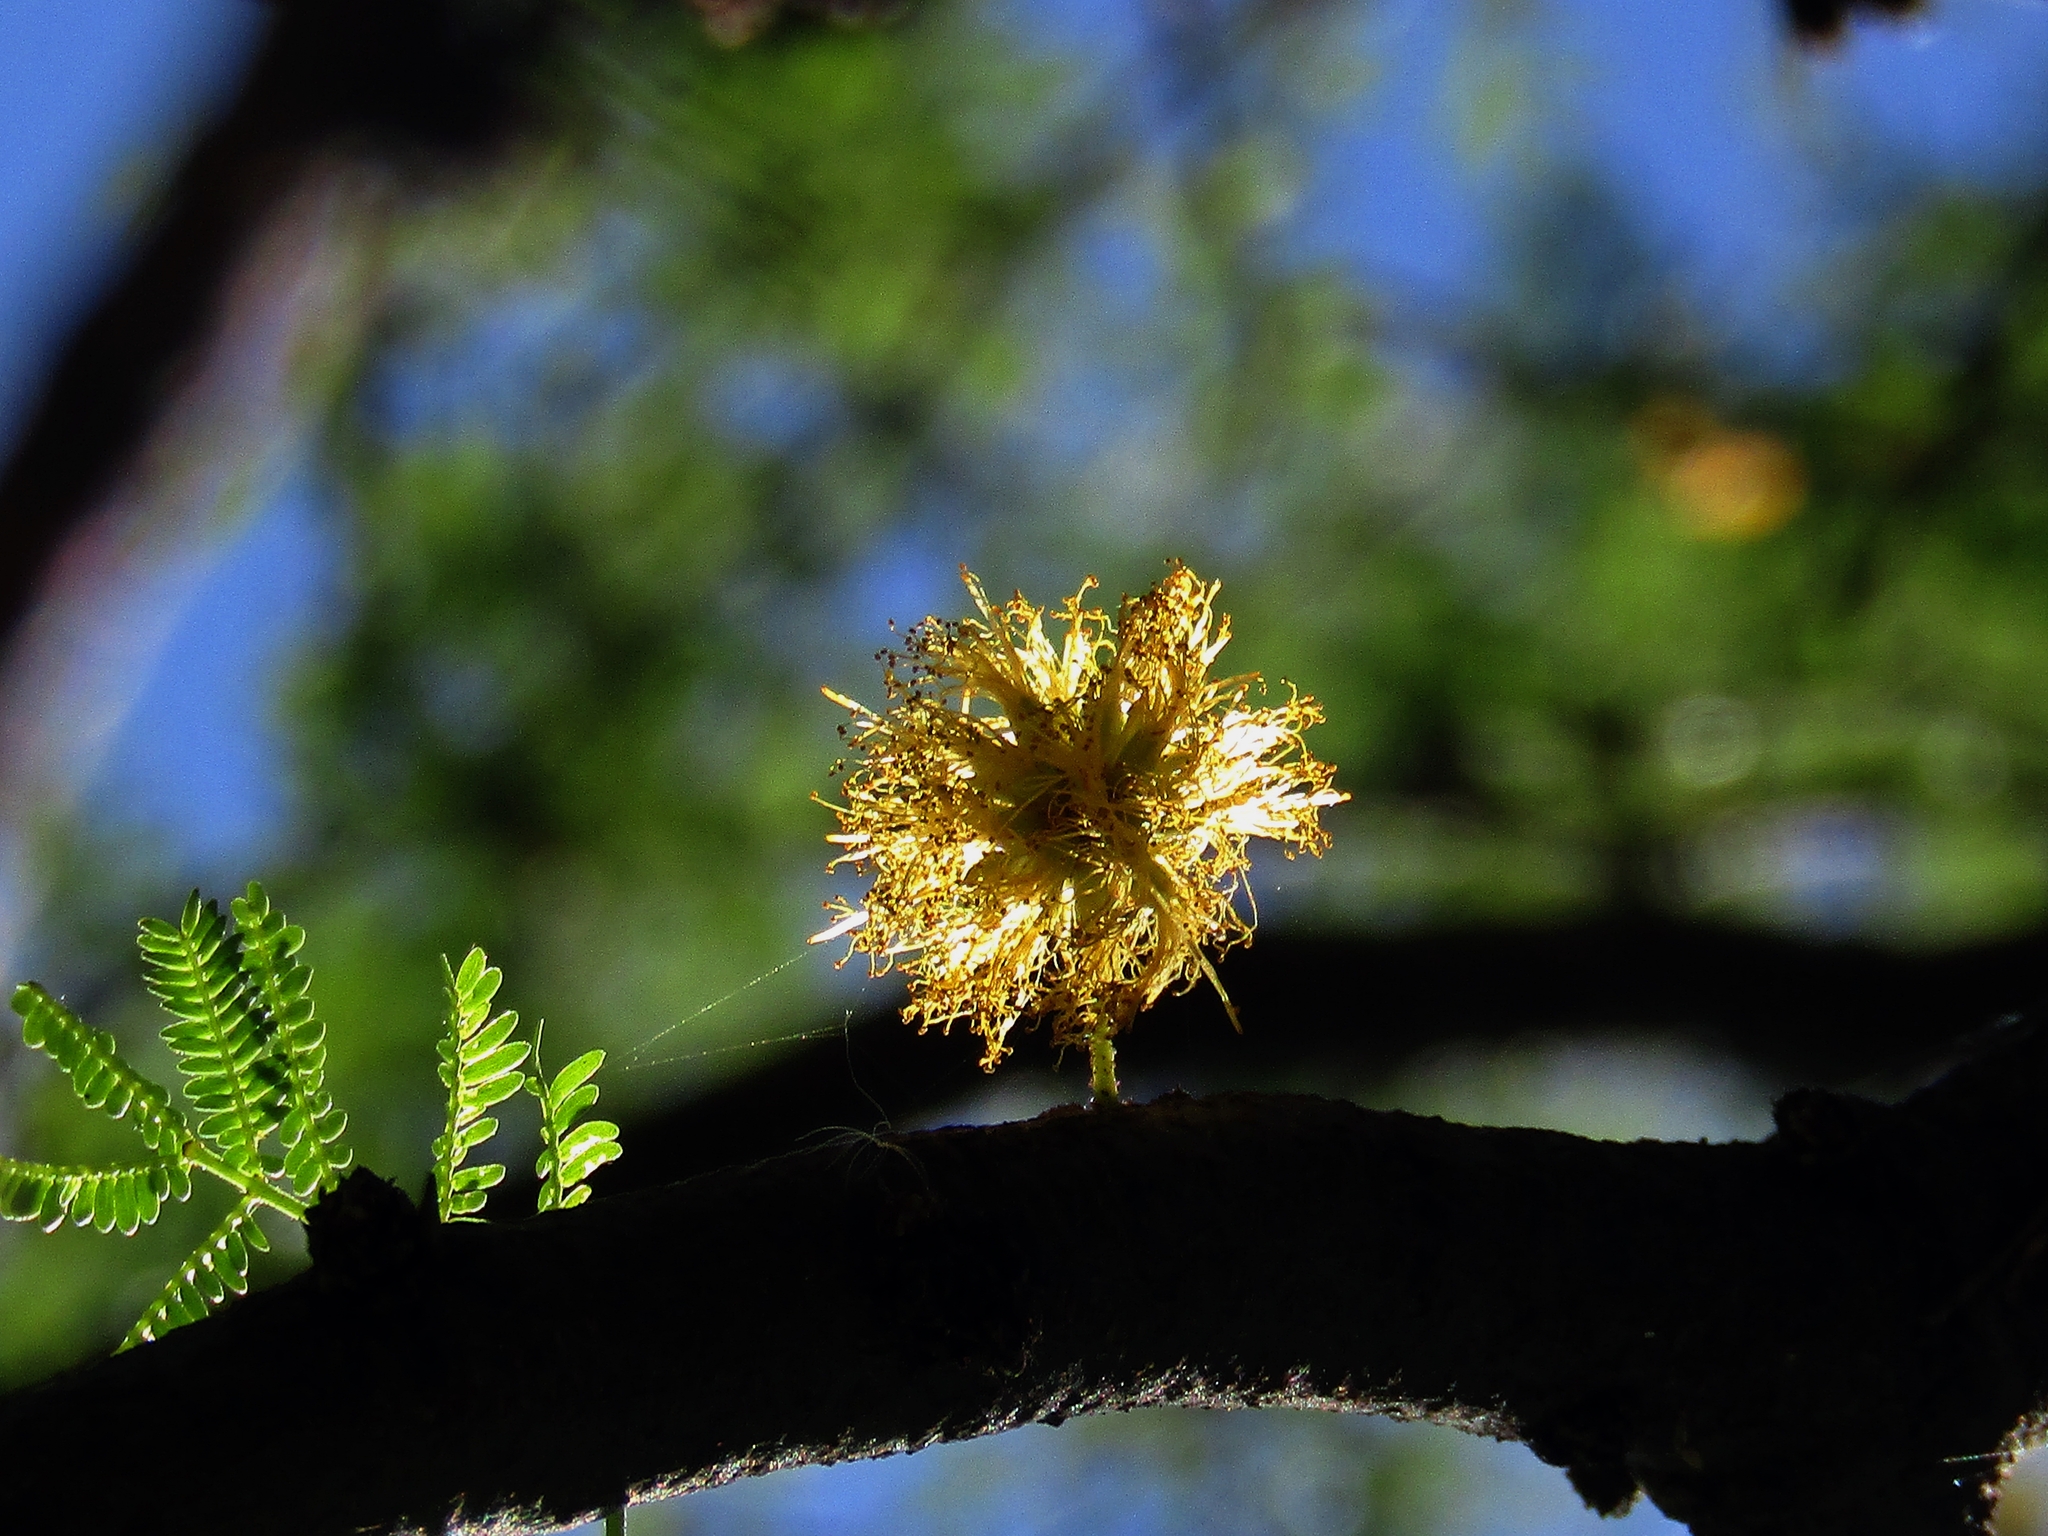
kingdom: Plantae
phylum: Tracheophyta
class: Magnoliopsida
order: Fabales
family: Fabaceae
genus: Vachellia
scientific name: Vachellia caven
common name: Roman cassie
